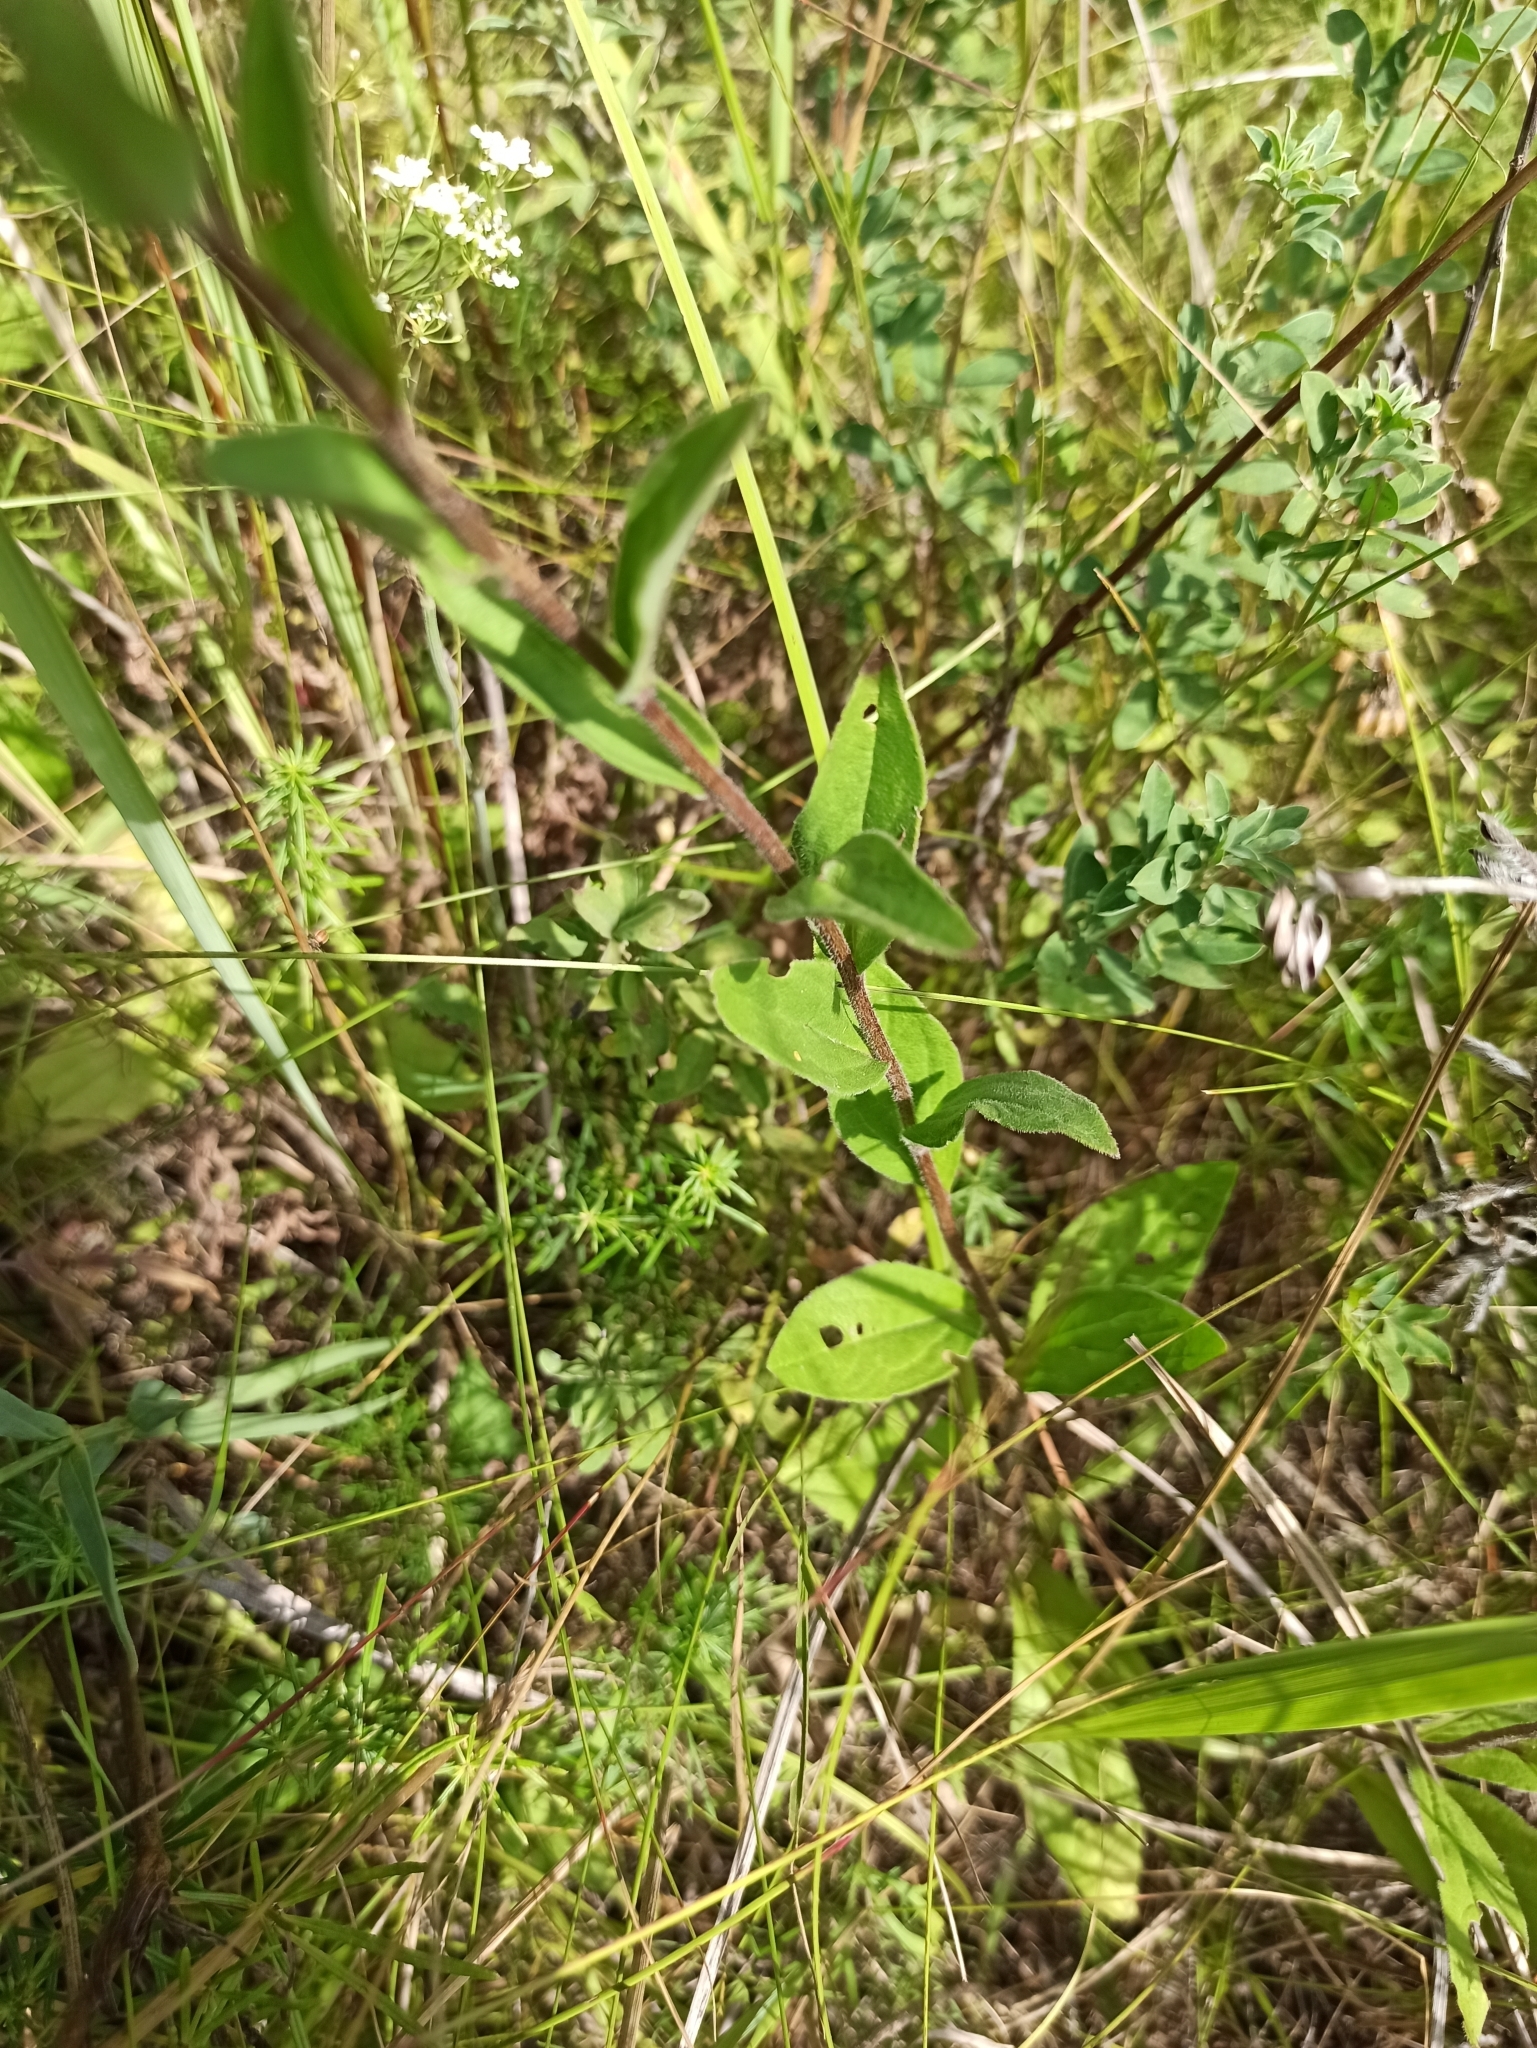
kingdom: Plantae
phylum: Tracheophyta
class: Magnoliopsida
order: Asterales
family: Asteraceae
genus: Aster
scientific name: Aster amellus
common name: European michaelmas daisy
